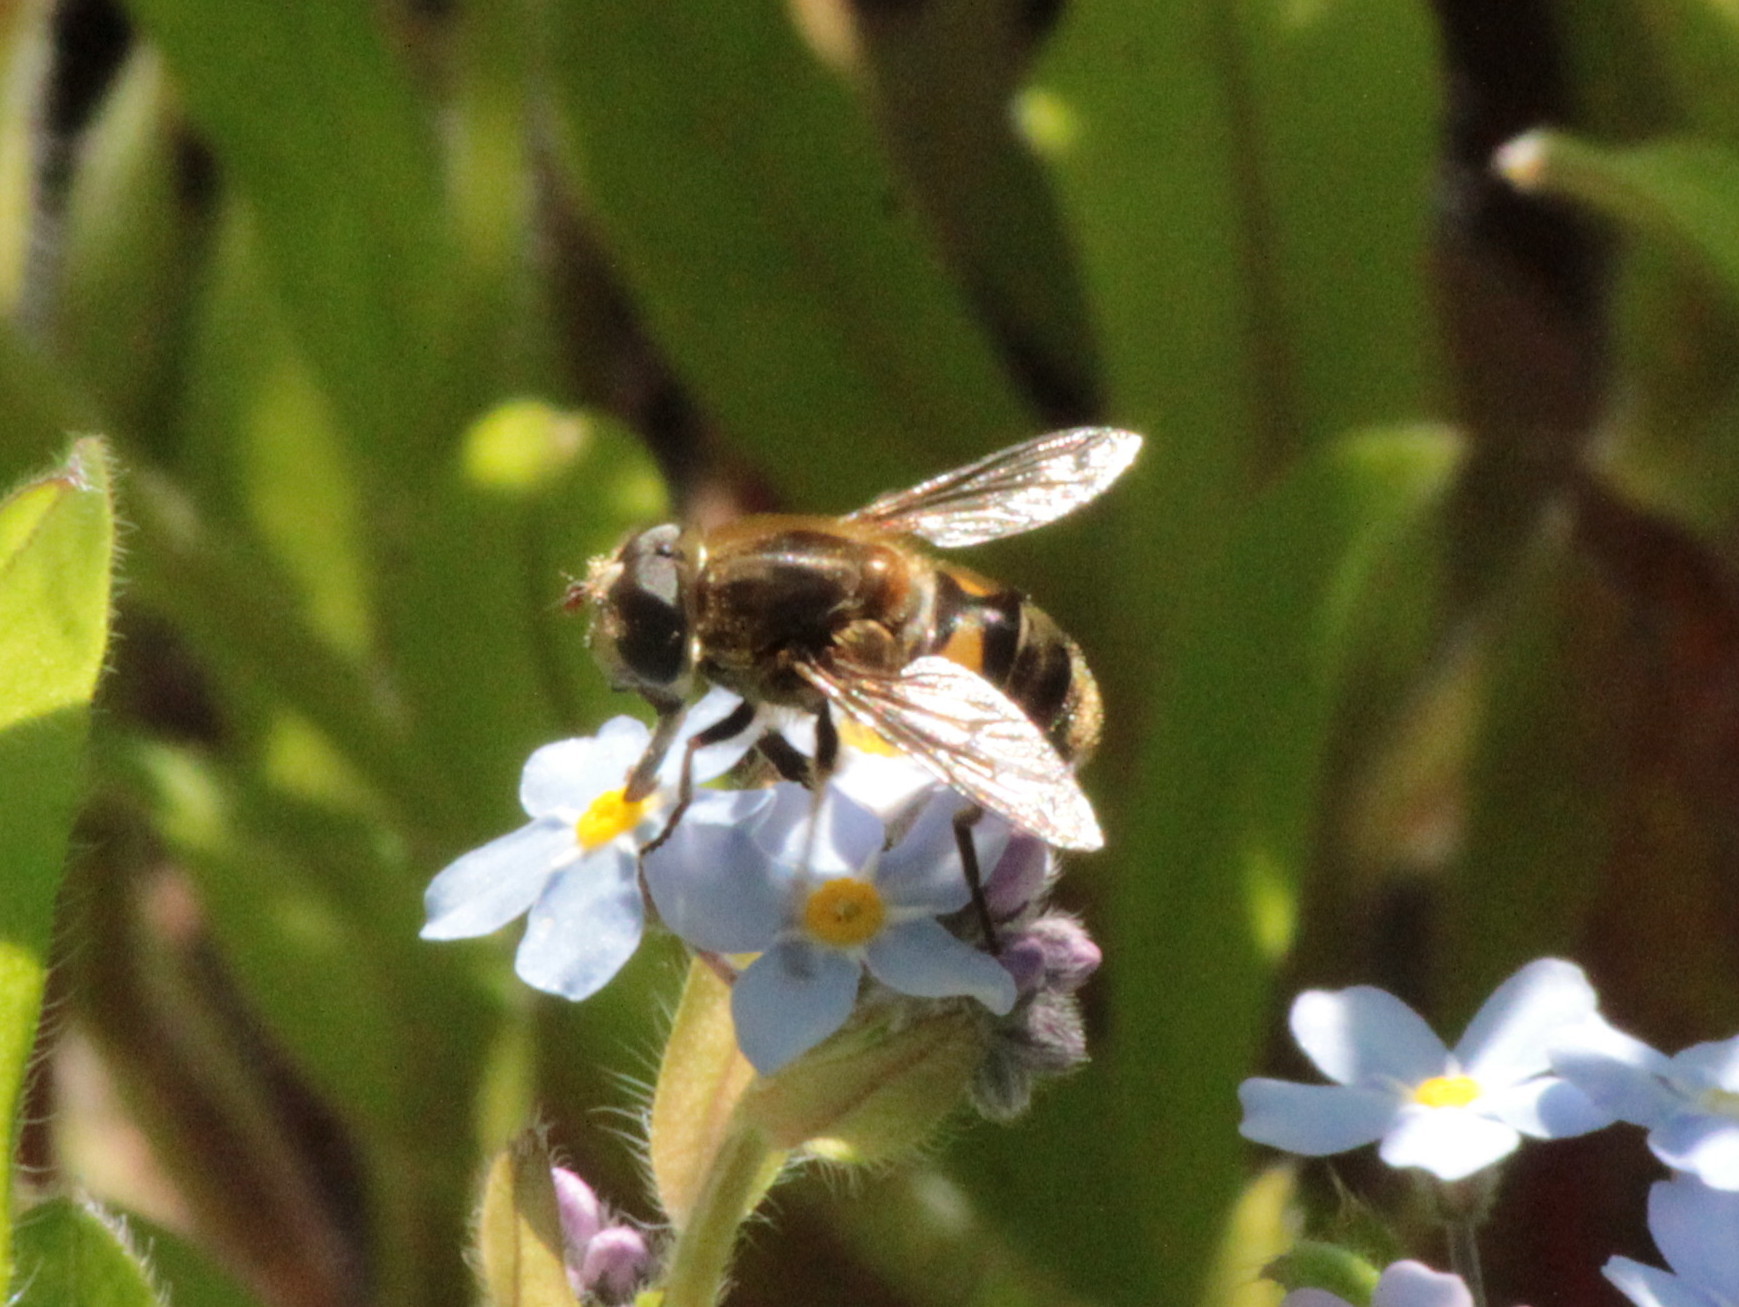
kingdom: Animalia
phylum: Arthropoda
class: Insecta
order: Diptera
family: Syrphidae
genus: Eristalis
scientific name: Eristalis nemorum
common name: Orange-spined drone fly
